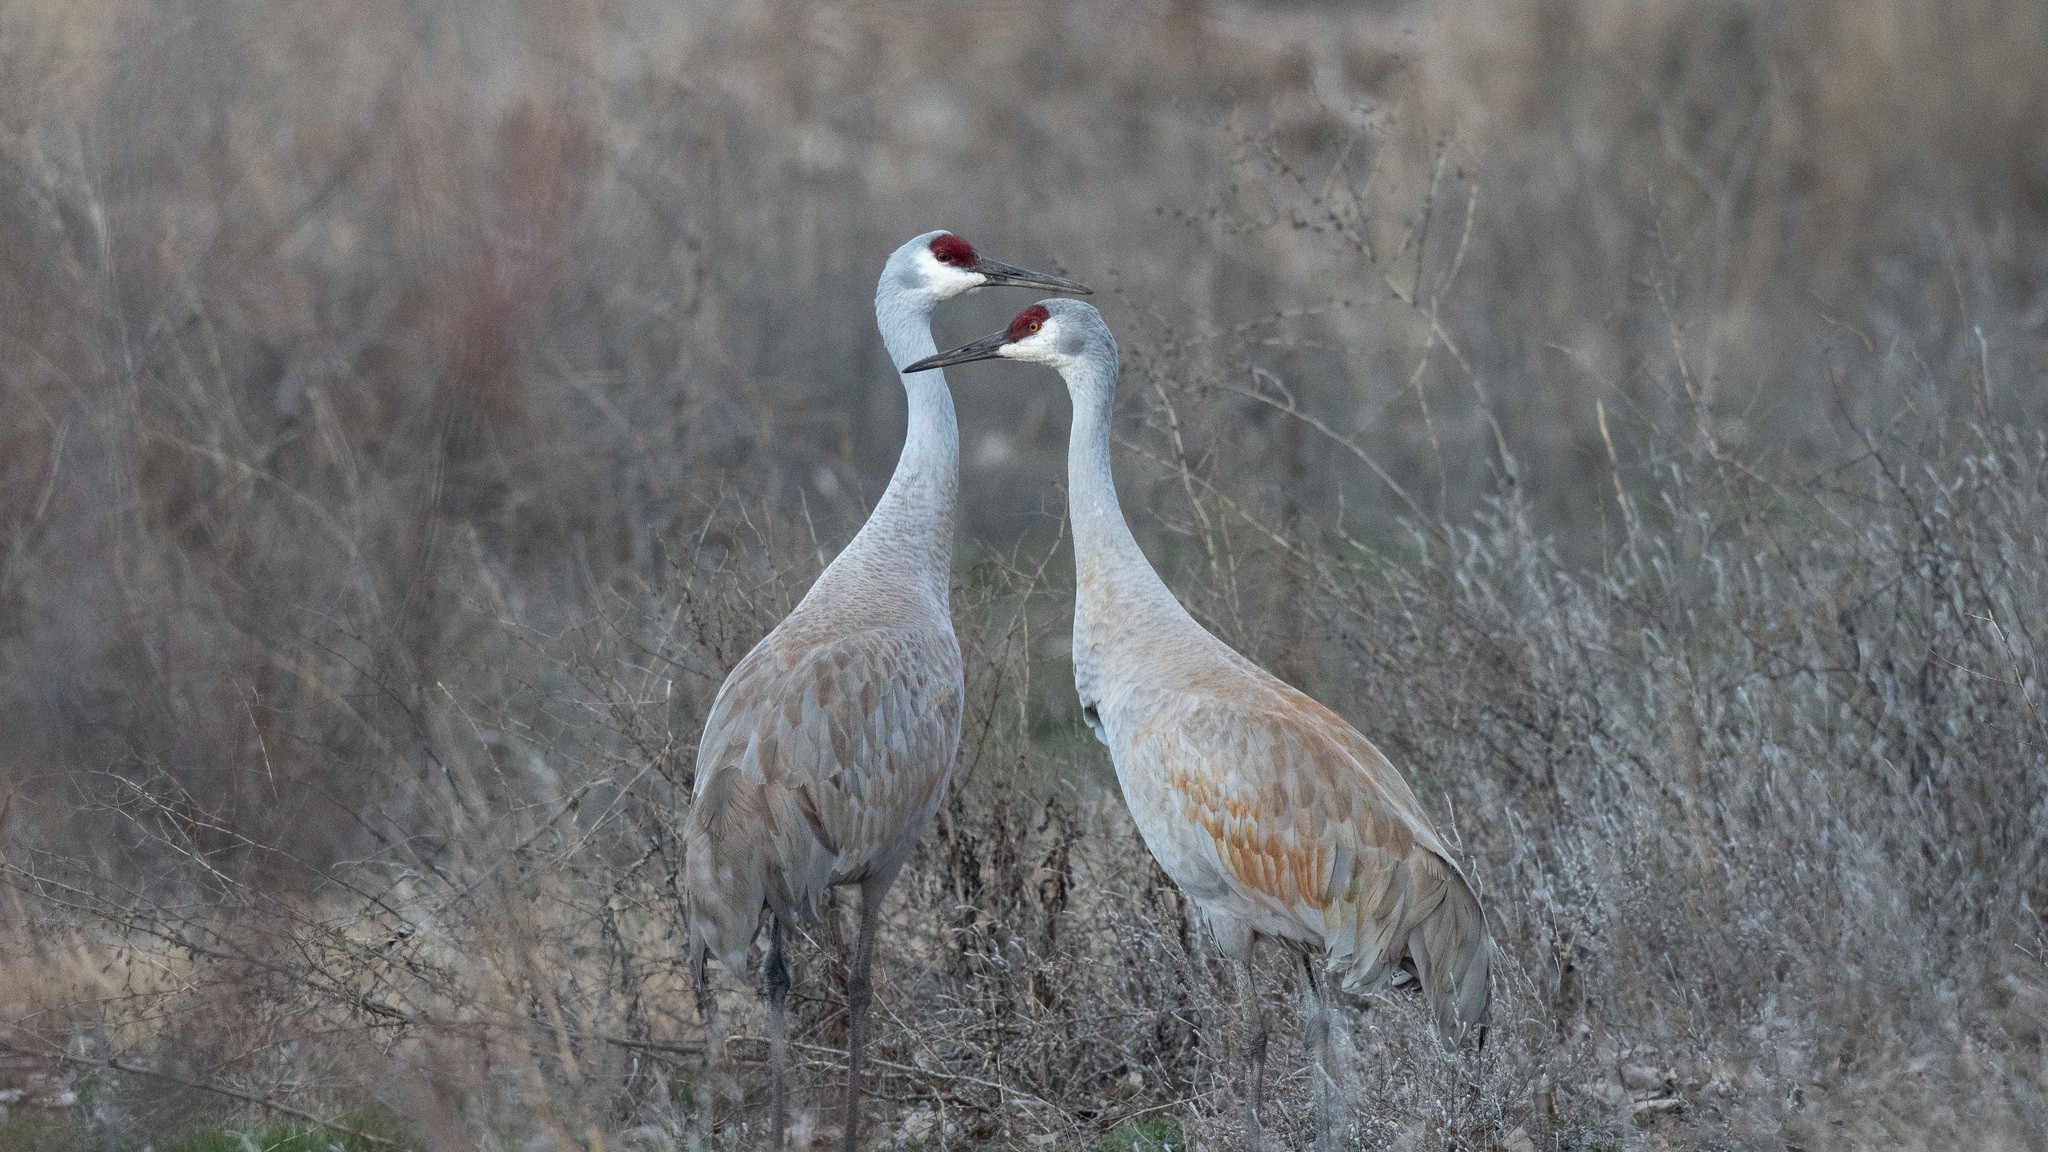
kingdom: Animalia
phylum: Chordata
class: Aves
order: Gruiformes
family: Gruidae
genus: Grus
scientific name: Grus canadensis
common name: Sandhill crane
